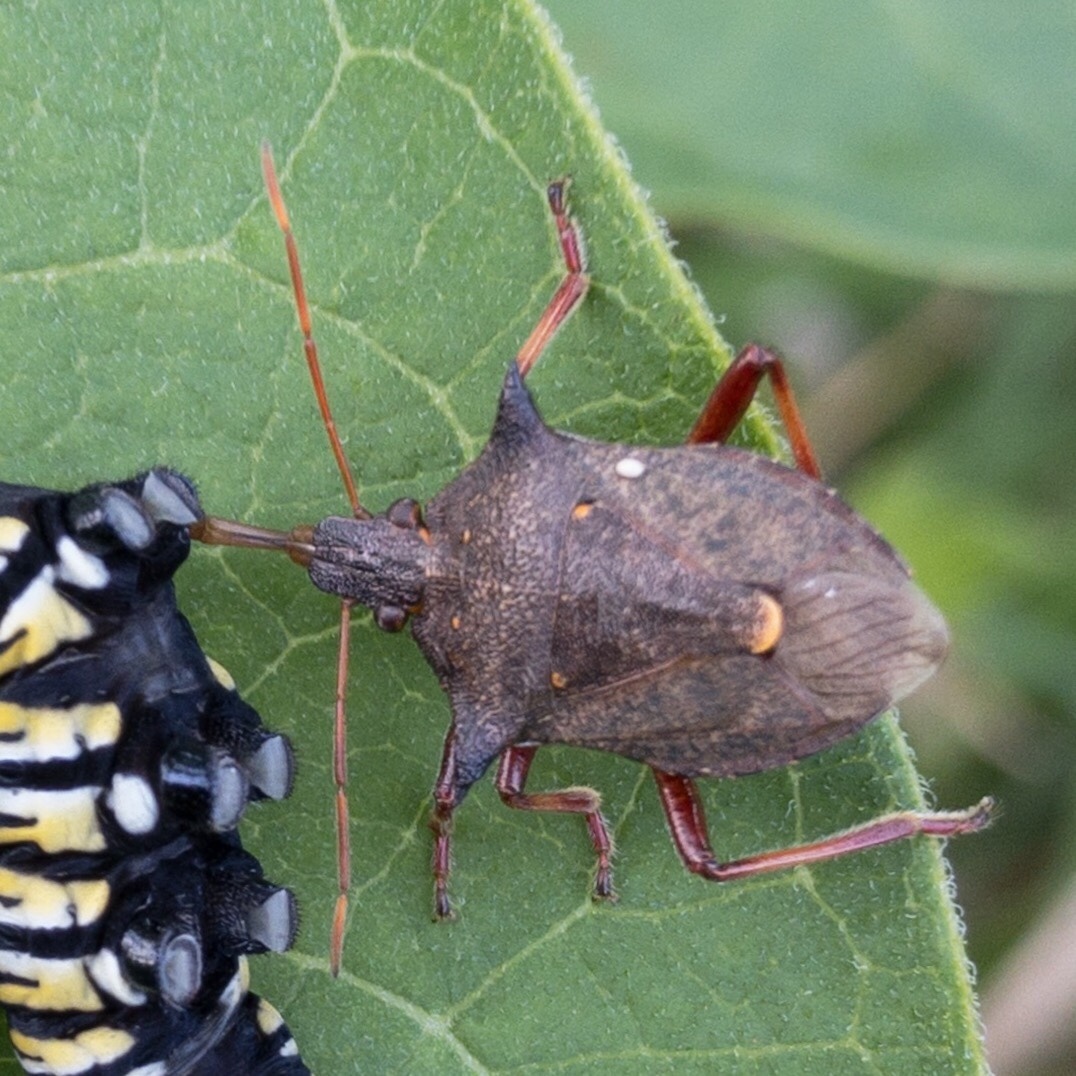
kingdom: Animalia
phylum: Arthropoda
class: Insecta
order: Hemiptera
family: Pentatomidae
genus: Picromerus
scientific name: Picromerus bidens
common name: Spiked shieldbug
